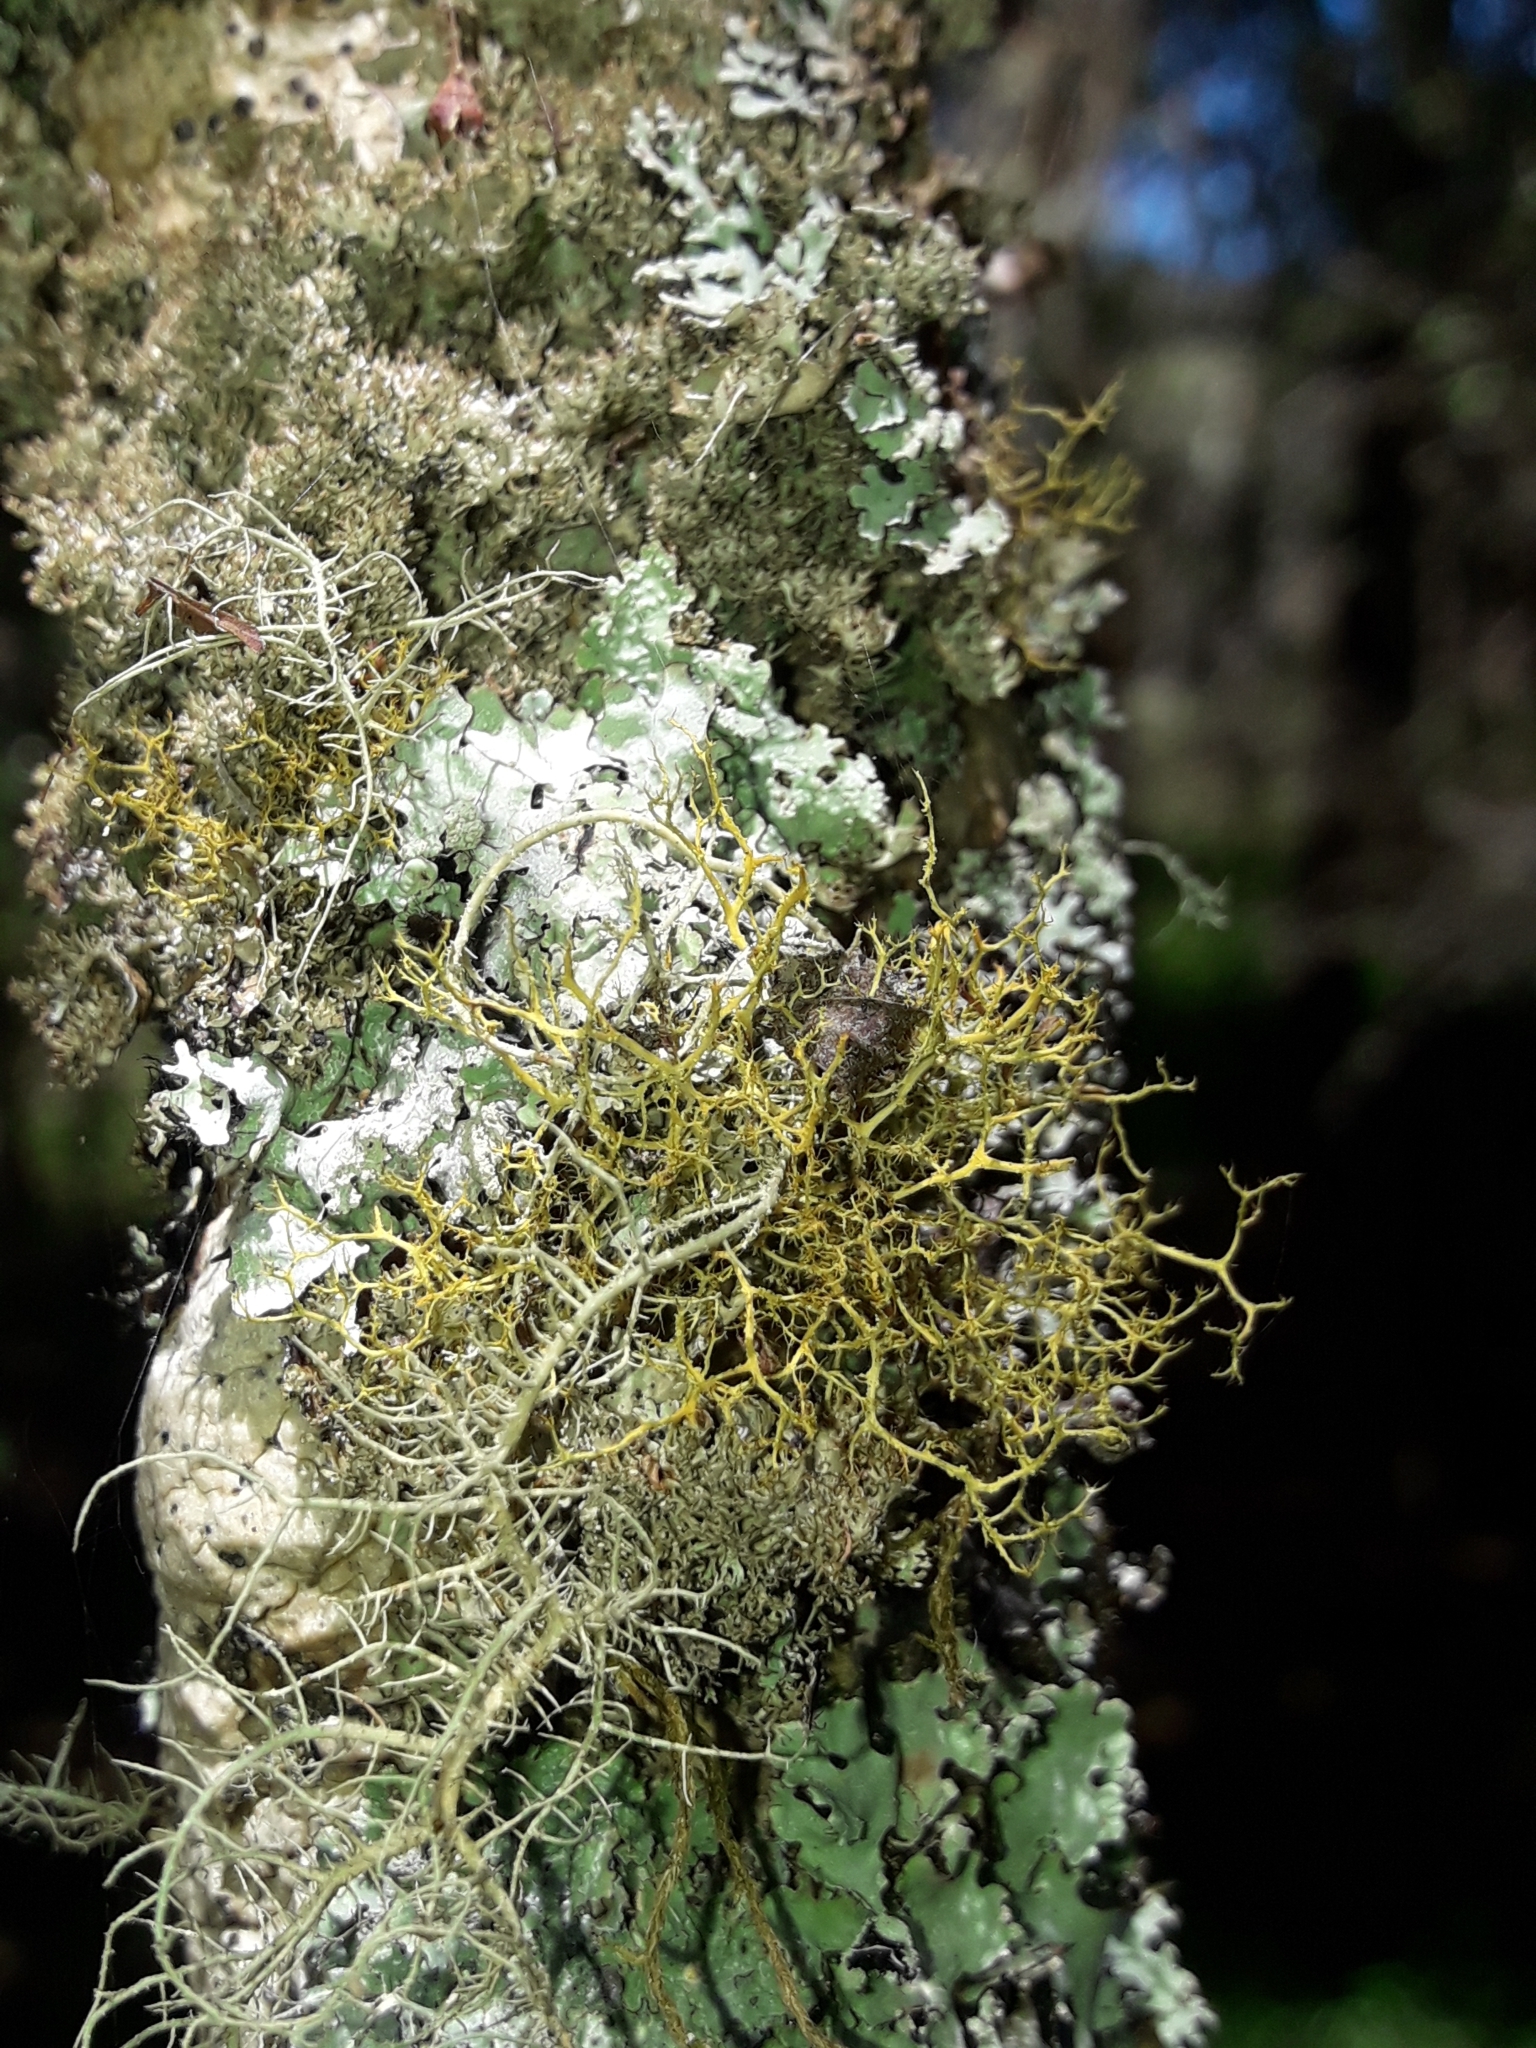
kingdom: Fungi
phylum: Ascomycota
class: Lecanoromycetes
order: Teloschistales
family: Teloschistaceae
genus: Teloschistes
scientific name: Teloschistes flavicans
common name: Golden hair-lichen
